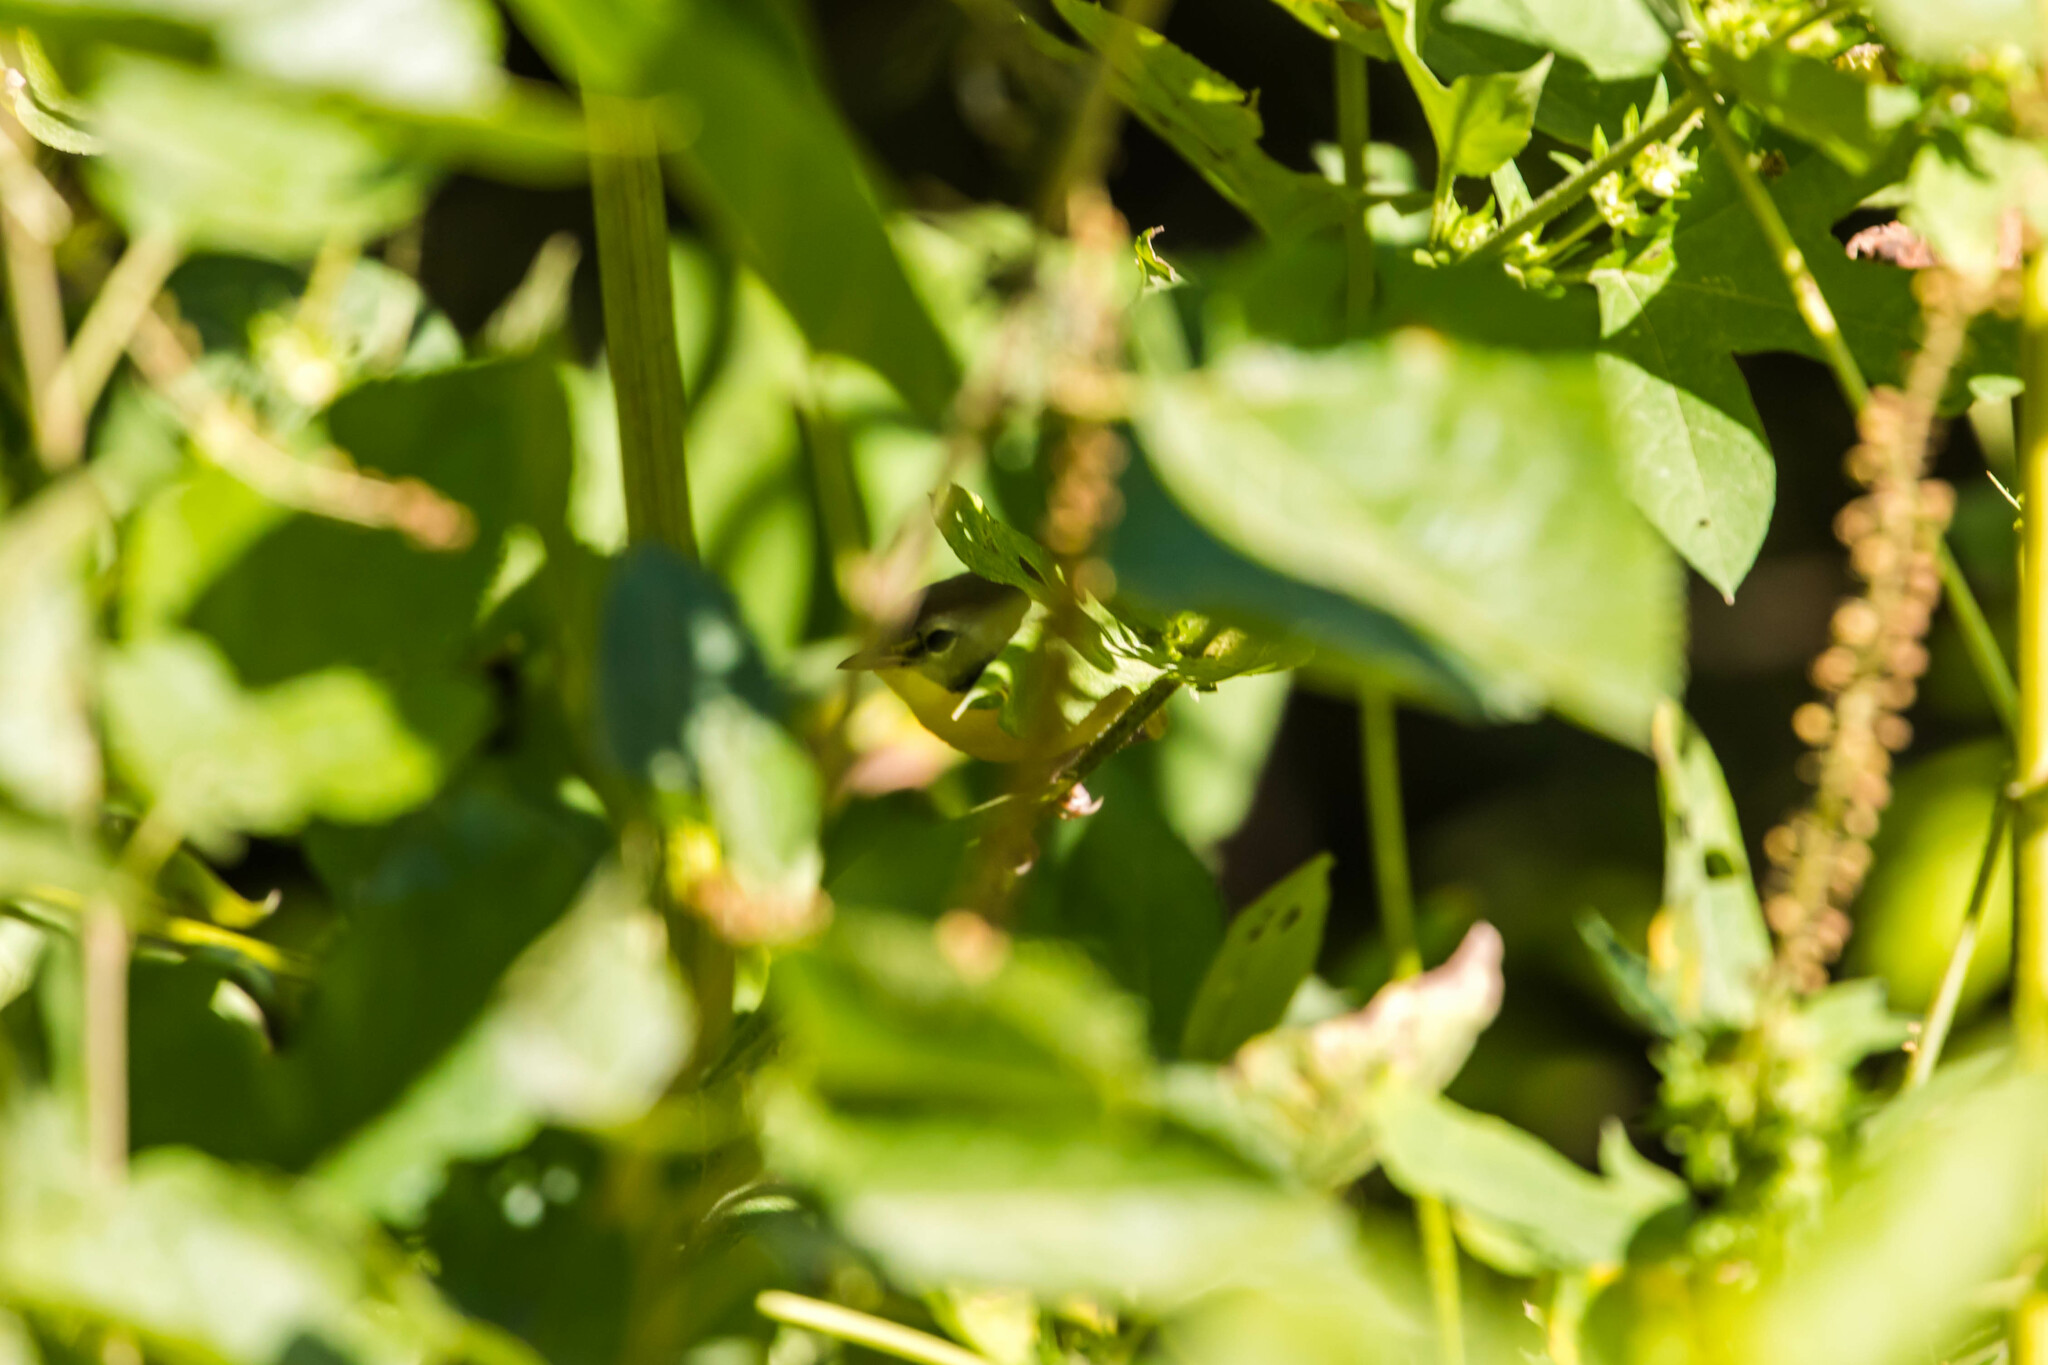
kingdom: Animalia
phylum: Chordata
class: Aves
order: Passeriformes
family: Parulidae
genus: Geothlypis
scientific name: Geothlypis trichas
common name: Common yellowthroat
